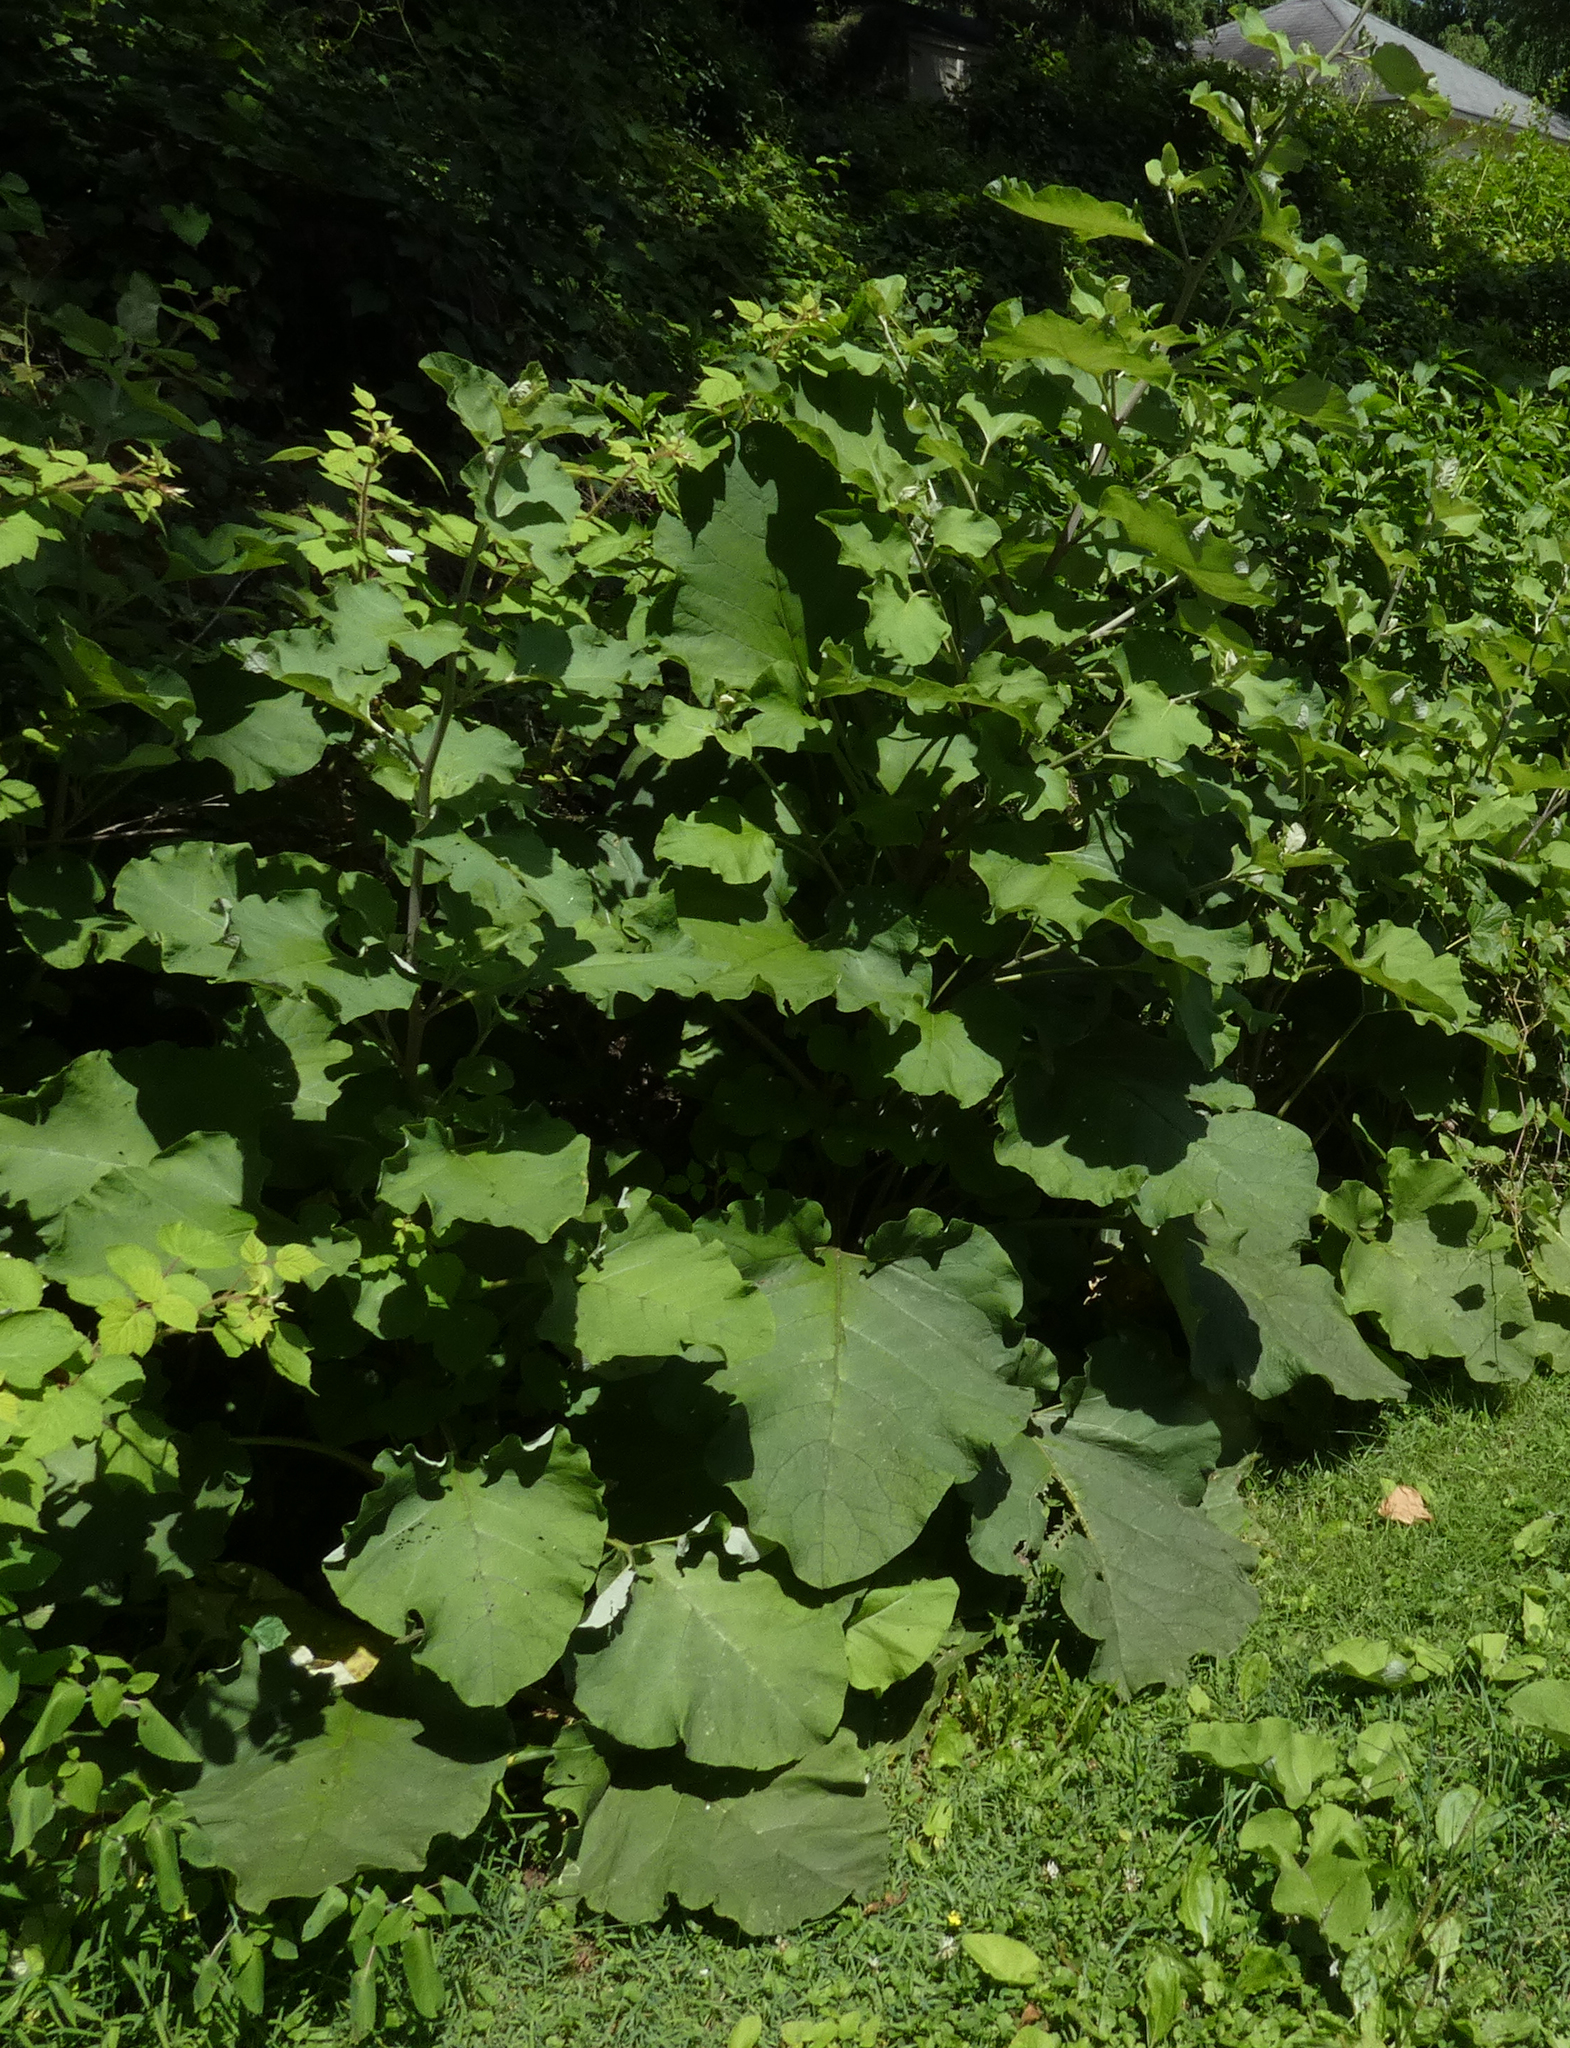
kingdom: Plantae
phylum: Tracheophyta
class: Magnoliopsida
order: Asterales
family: Asteraceae
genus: Arctium
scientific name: Arctium
